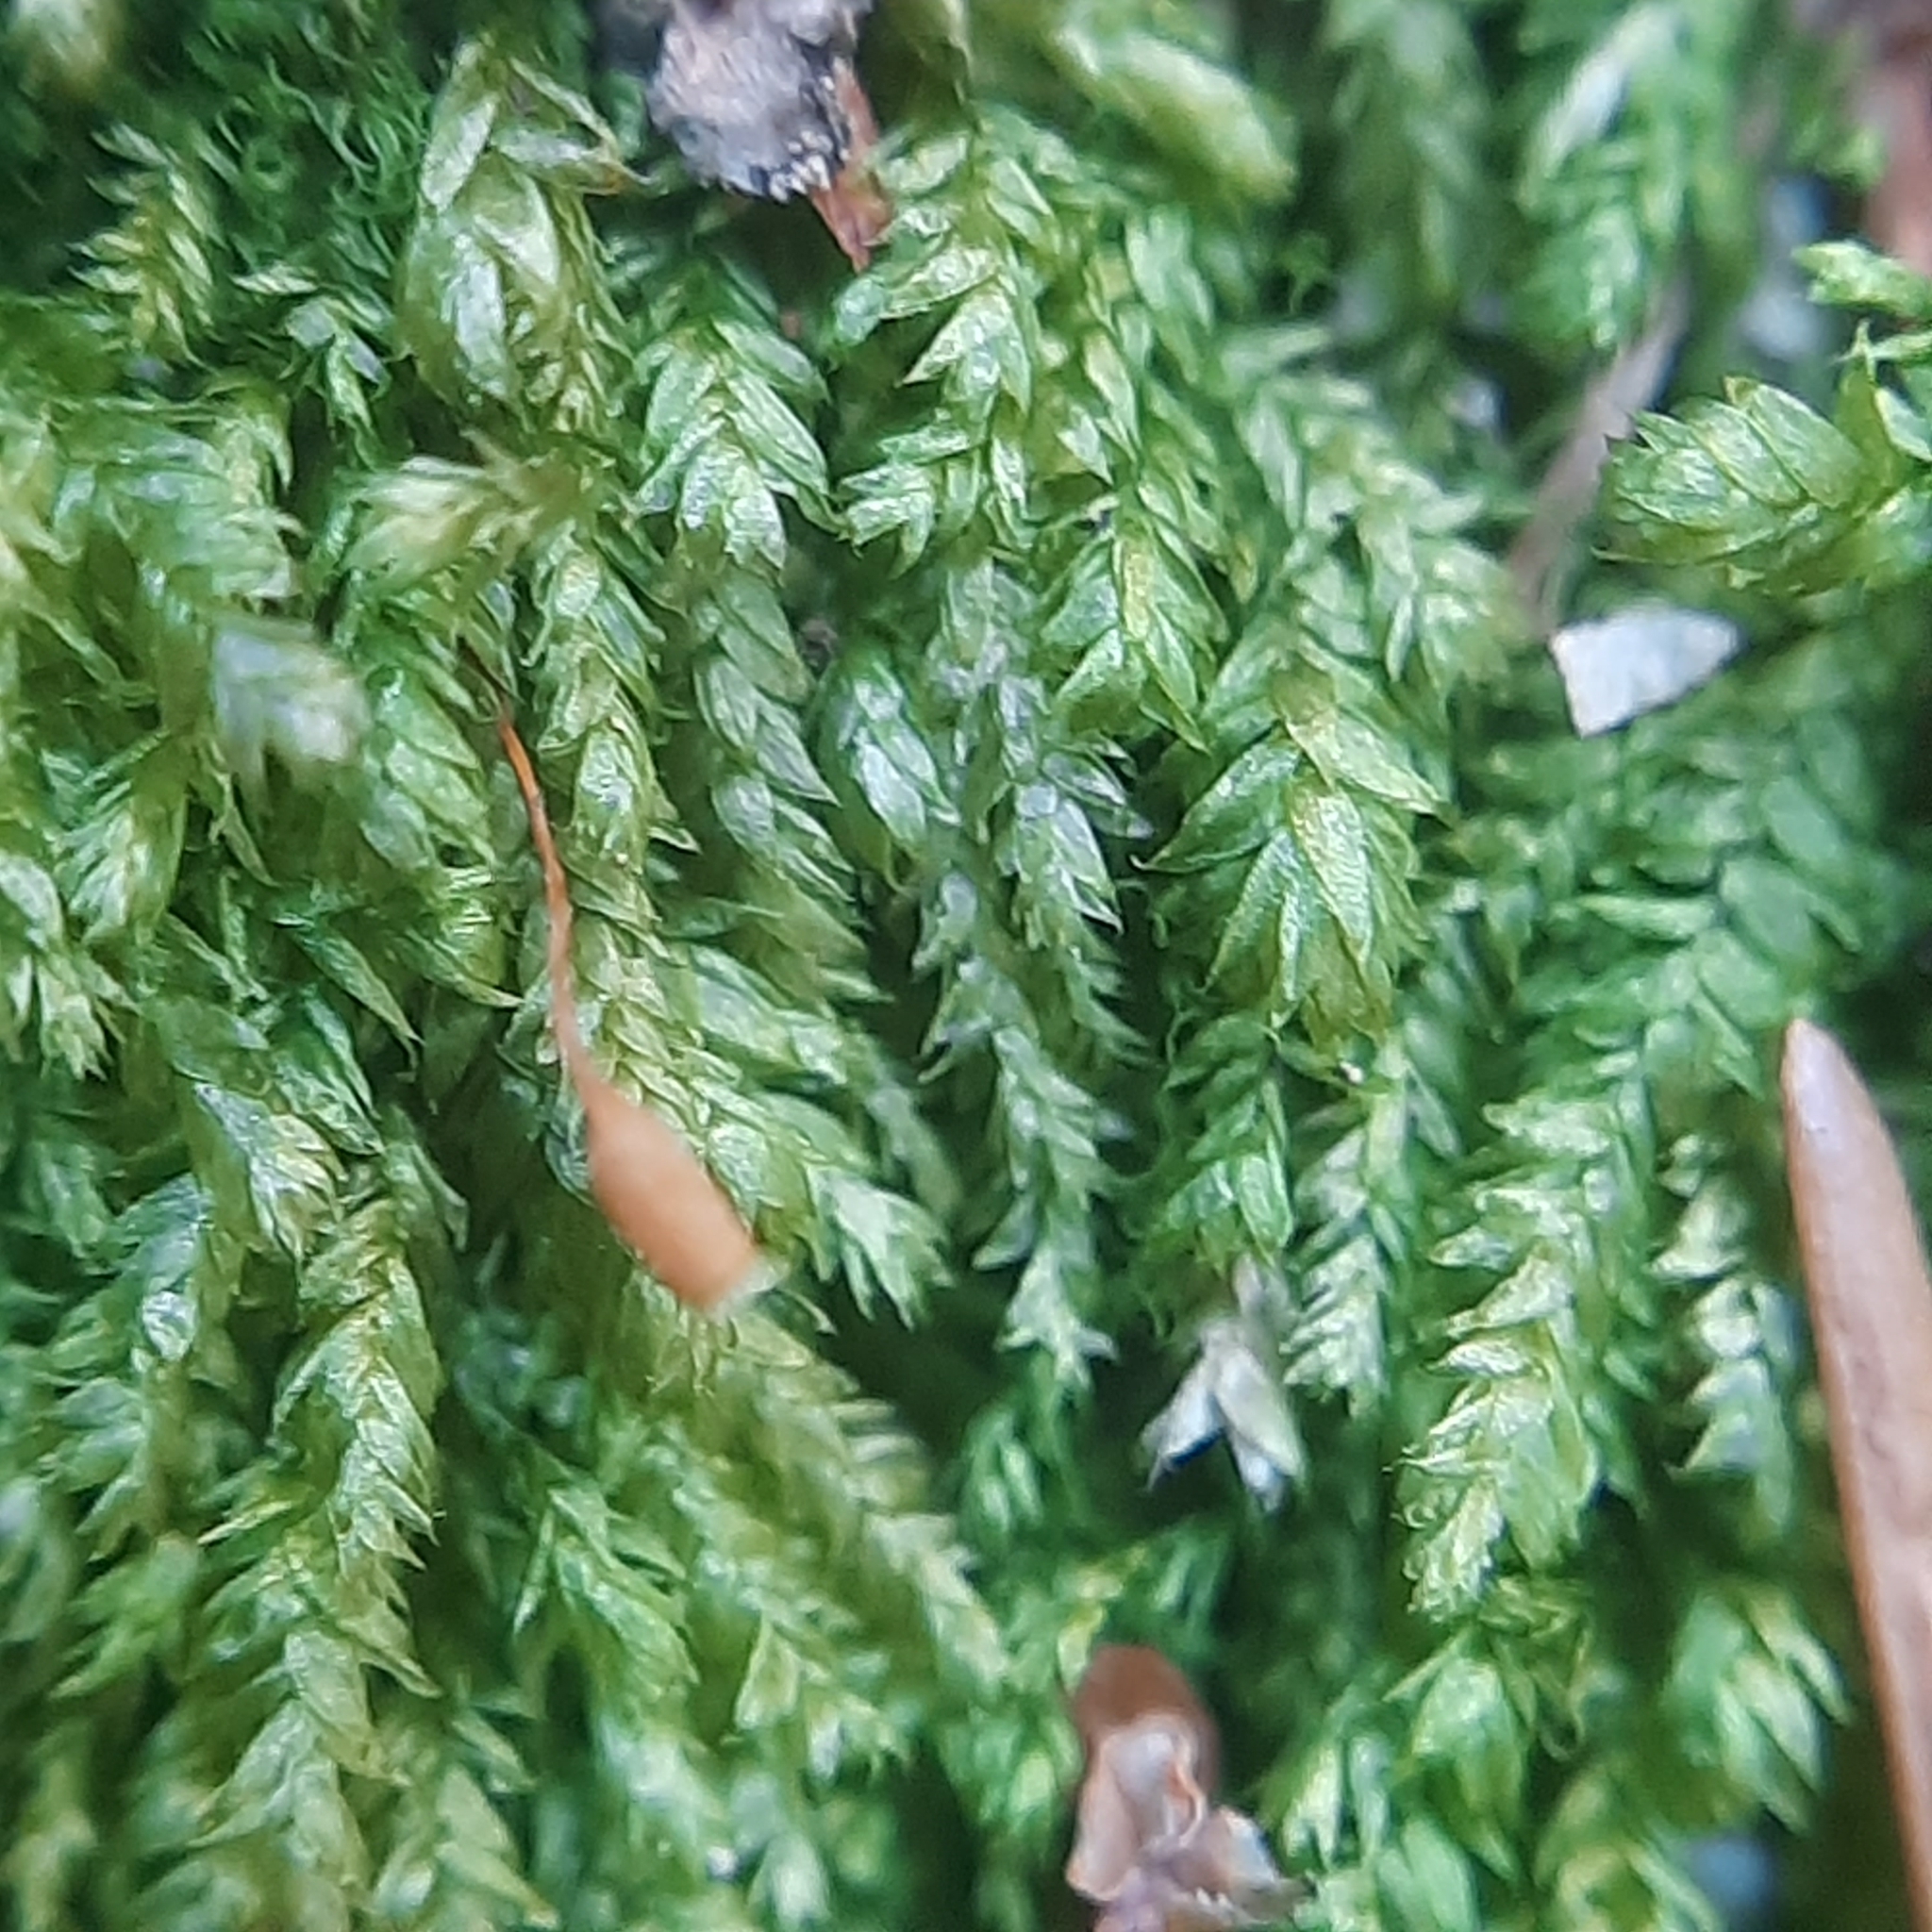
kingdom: Plantae
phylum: Bryophyta
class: Bryopsida
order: Hypnales
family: Plagiotheciaceae
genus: Plagiothecium
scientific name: Plagiothecium
